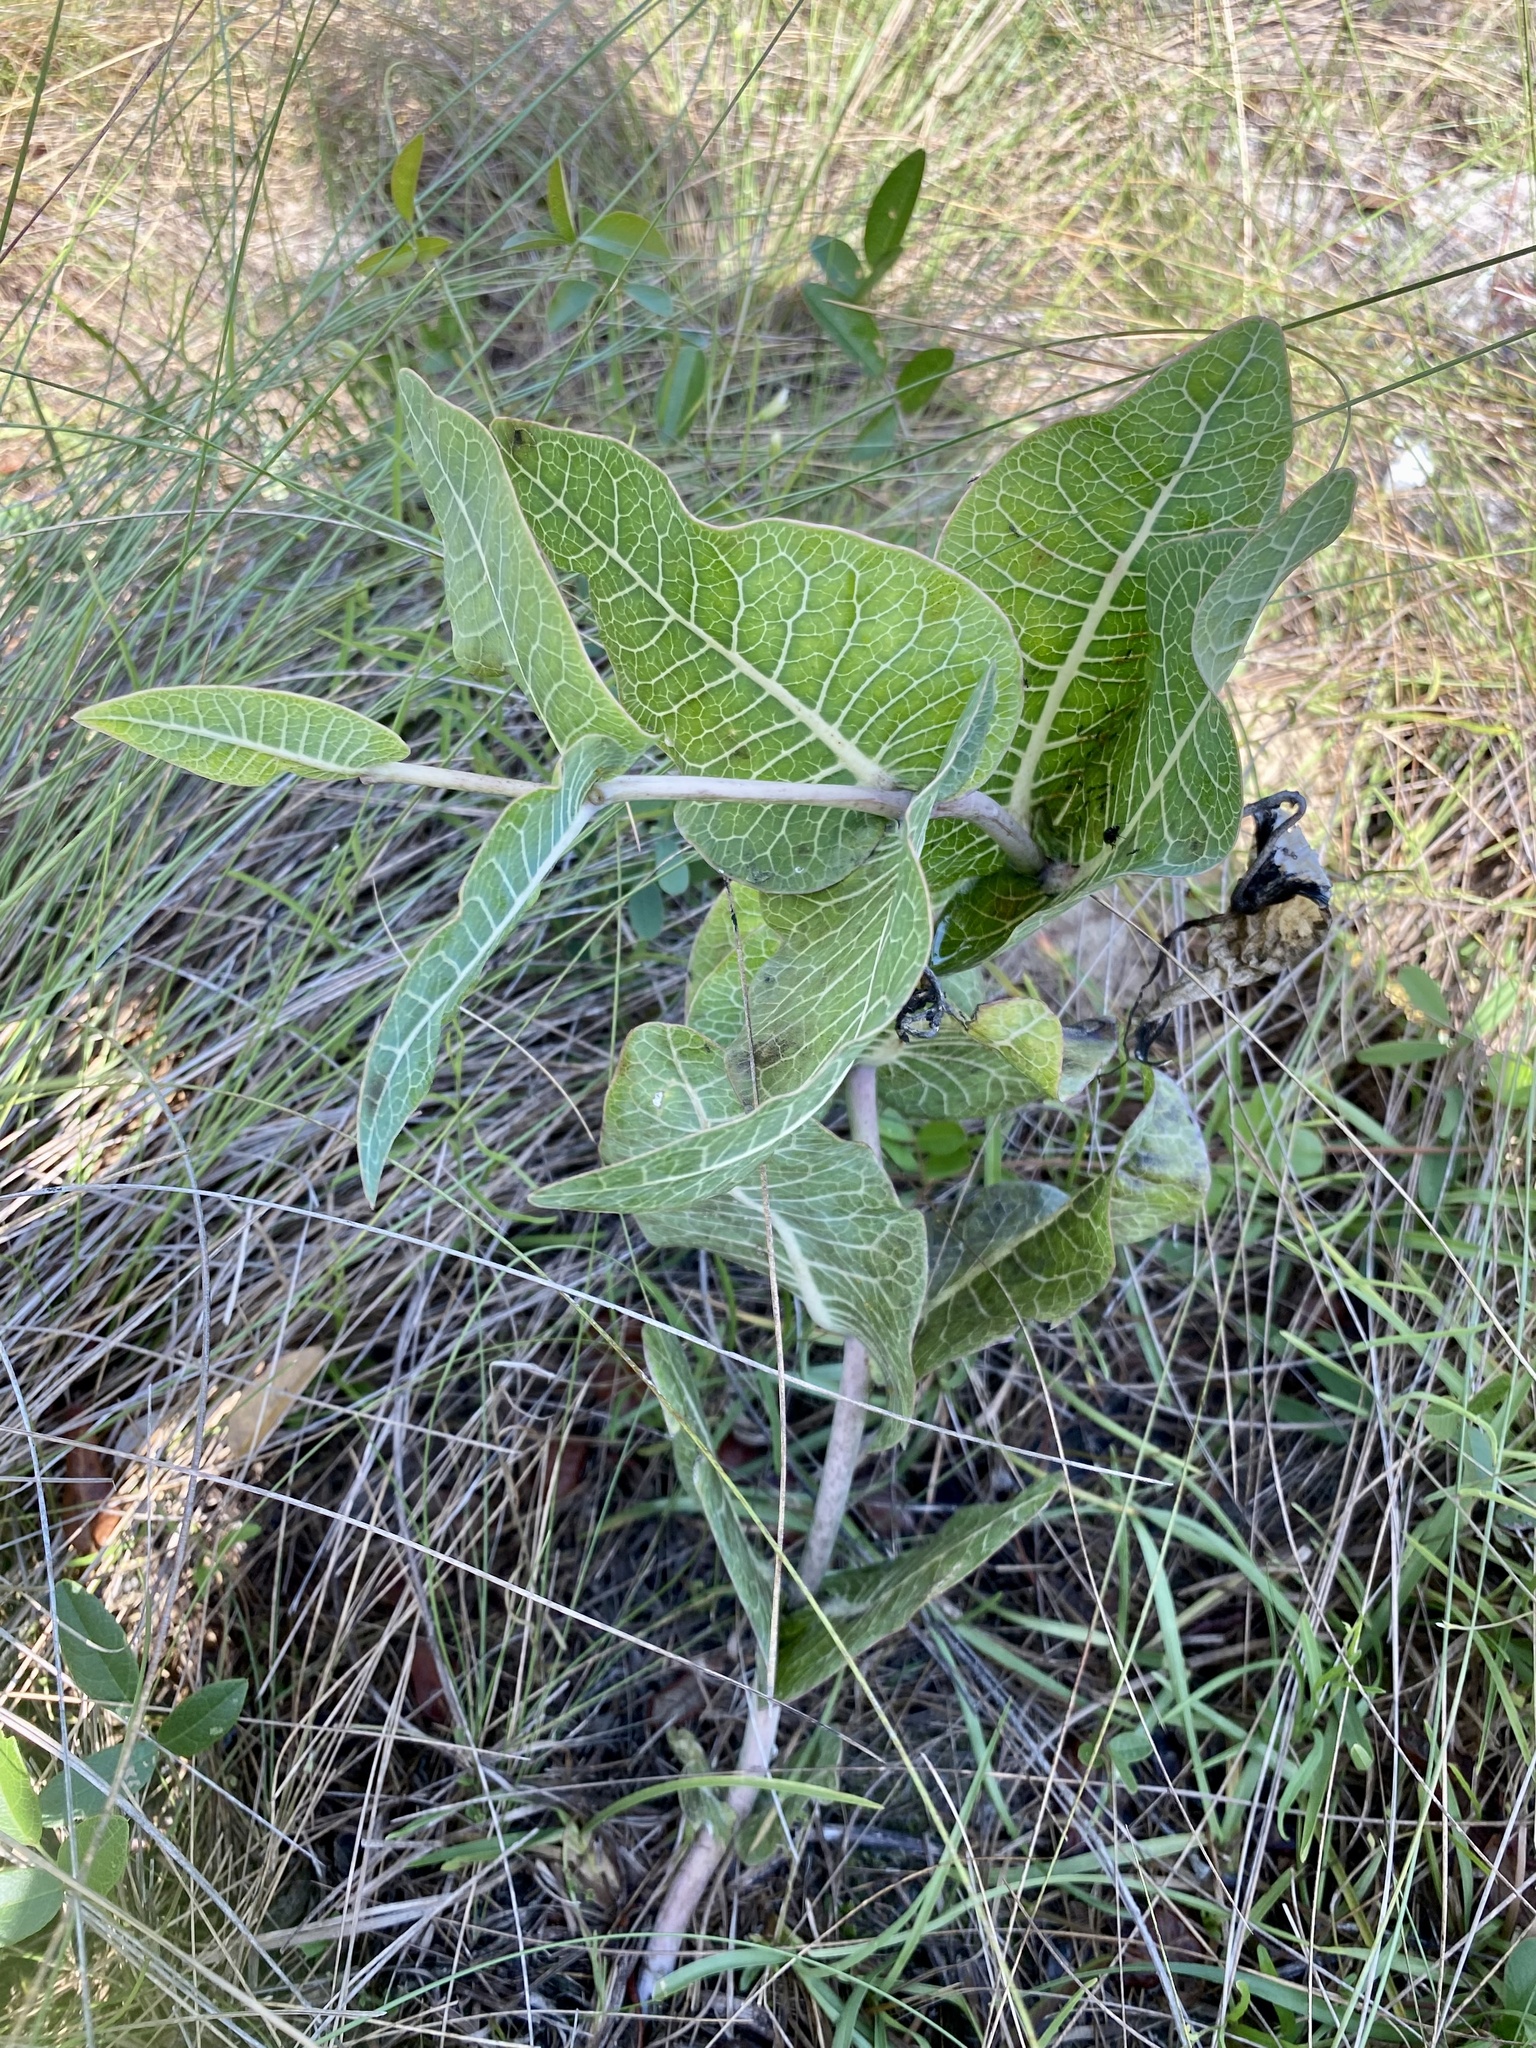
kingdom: Plantae
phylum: Tracheophyta
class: Magnoliopsida
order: Gentianales
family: Apocynaceae
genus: Asclepias
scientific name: Asclepias humistrata
